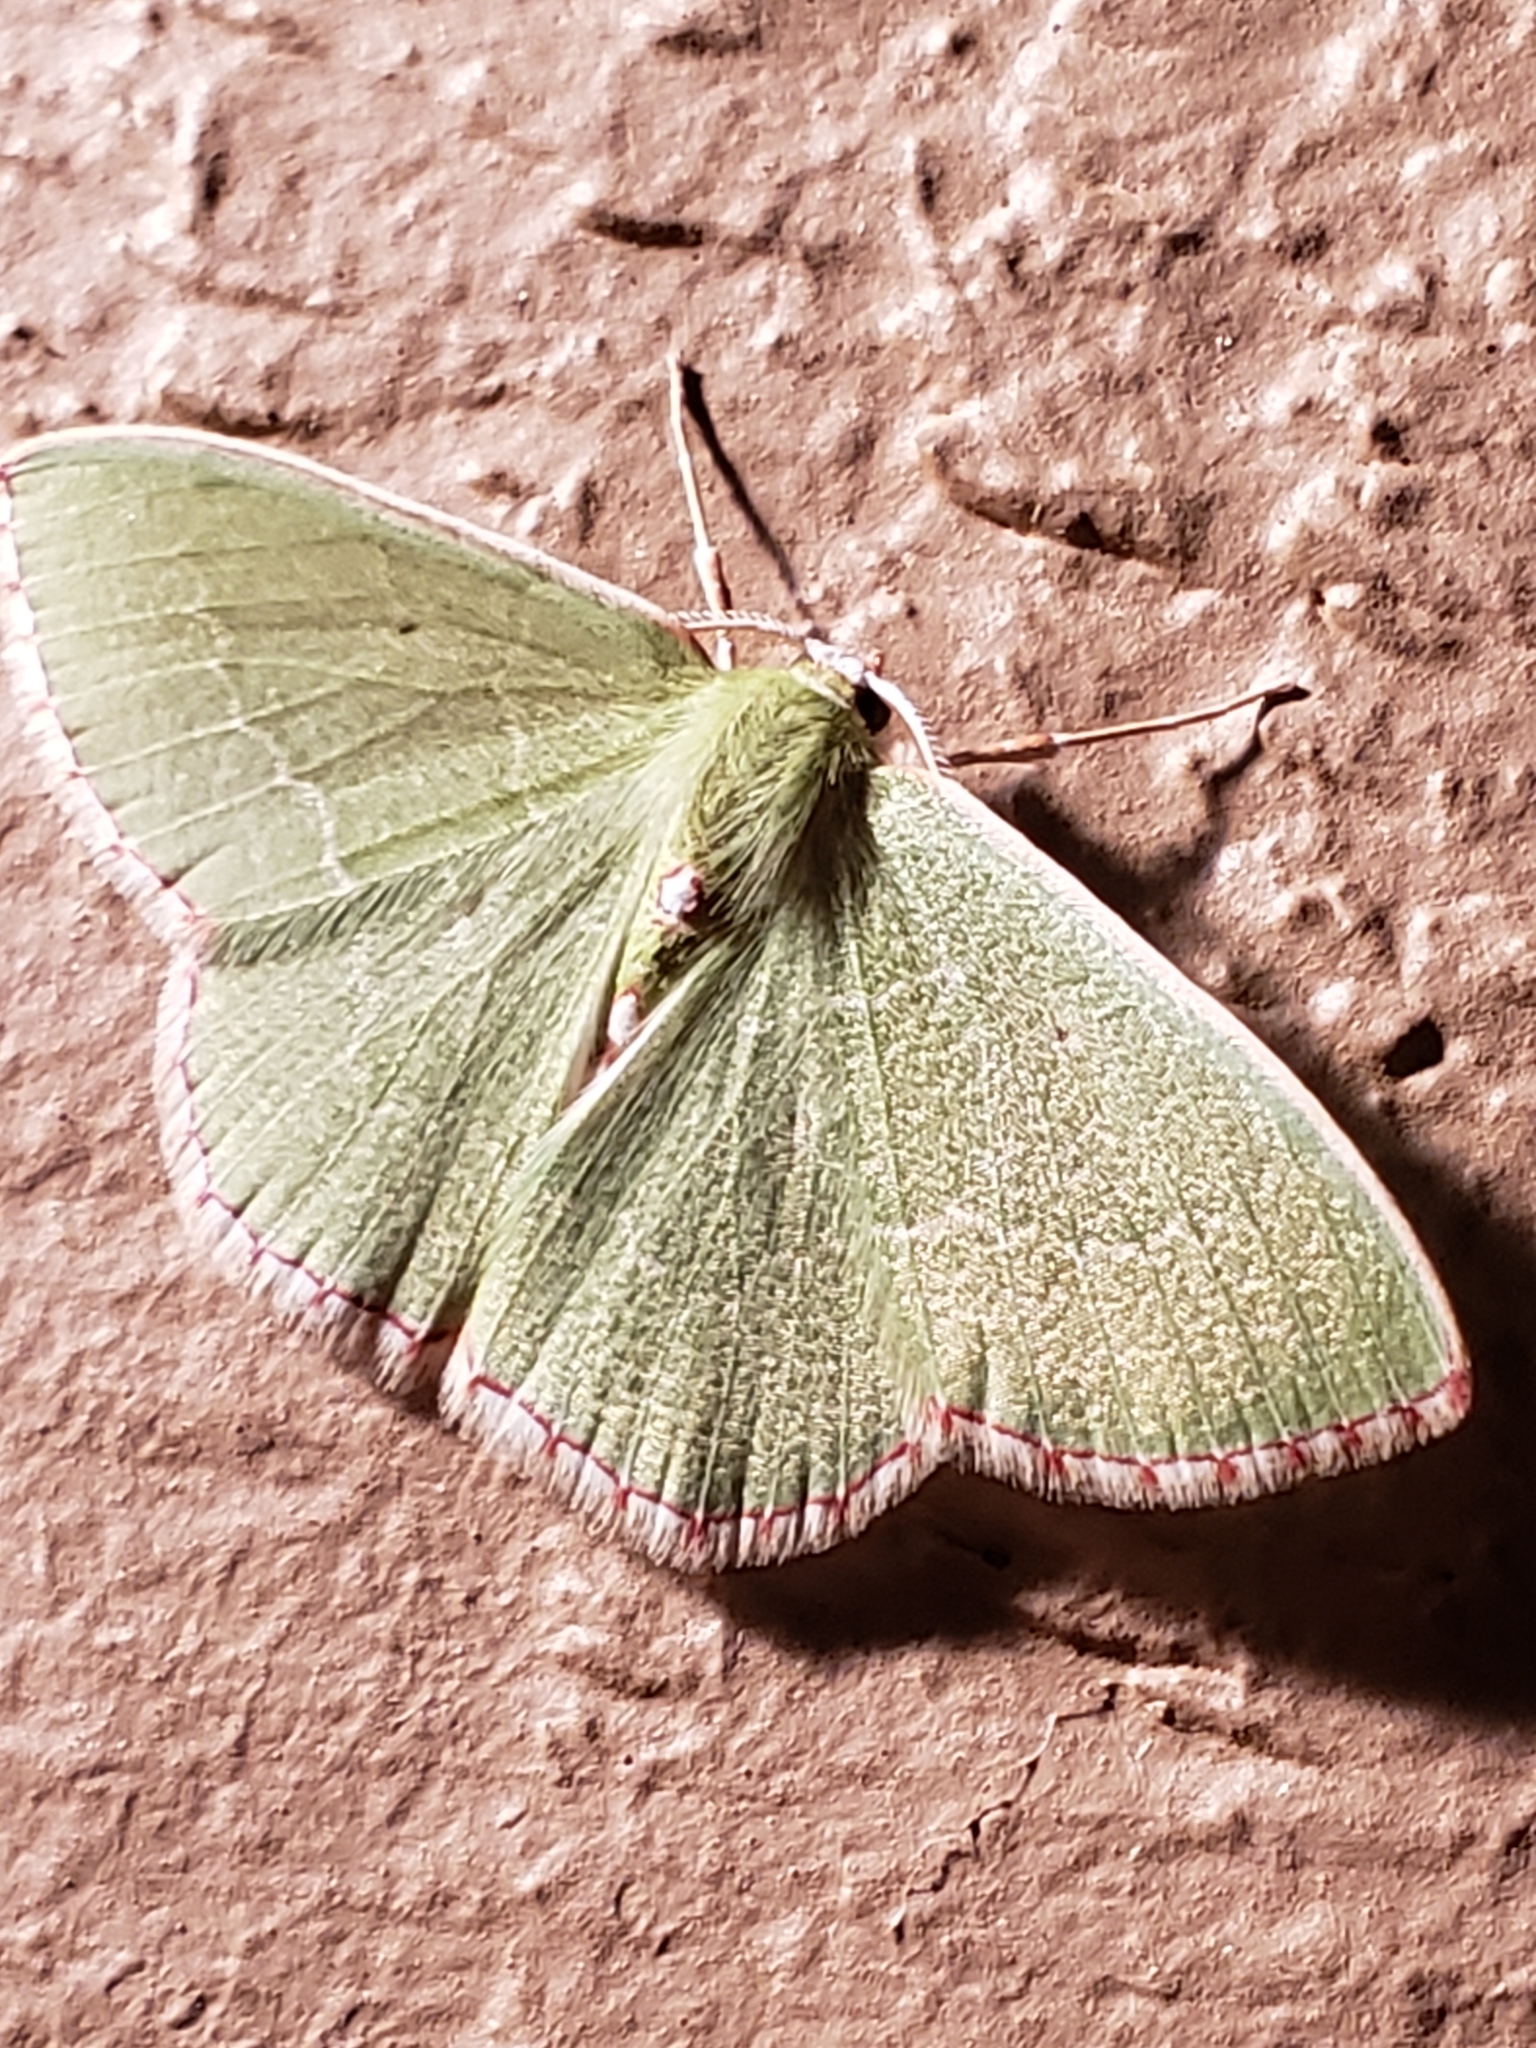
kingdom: Animalia
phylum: Arthropoda
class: Insecta
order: Lepidoptera
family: Geometridae
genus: Nemoria
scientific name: Nemoria lixaria
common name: Red-bordered emerald
